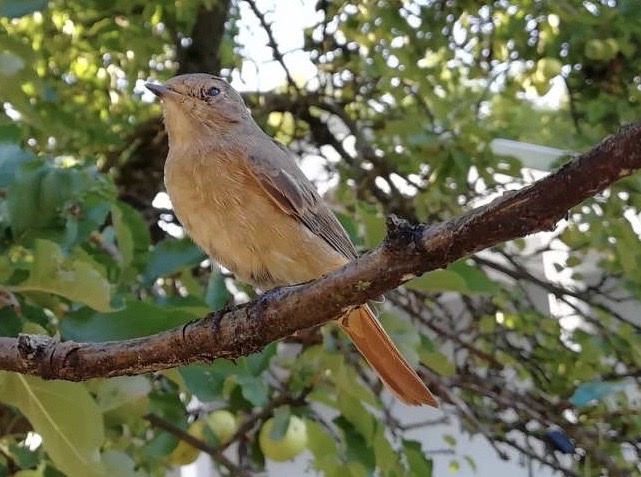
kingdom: Animalia
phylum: Chordata
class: Aves
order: Passeriformes
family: Muscicapidae
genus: Phoenicurus
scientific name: Phoenicurus phoenicurus
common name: Common redstart
